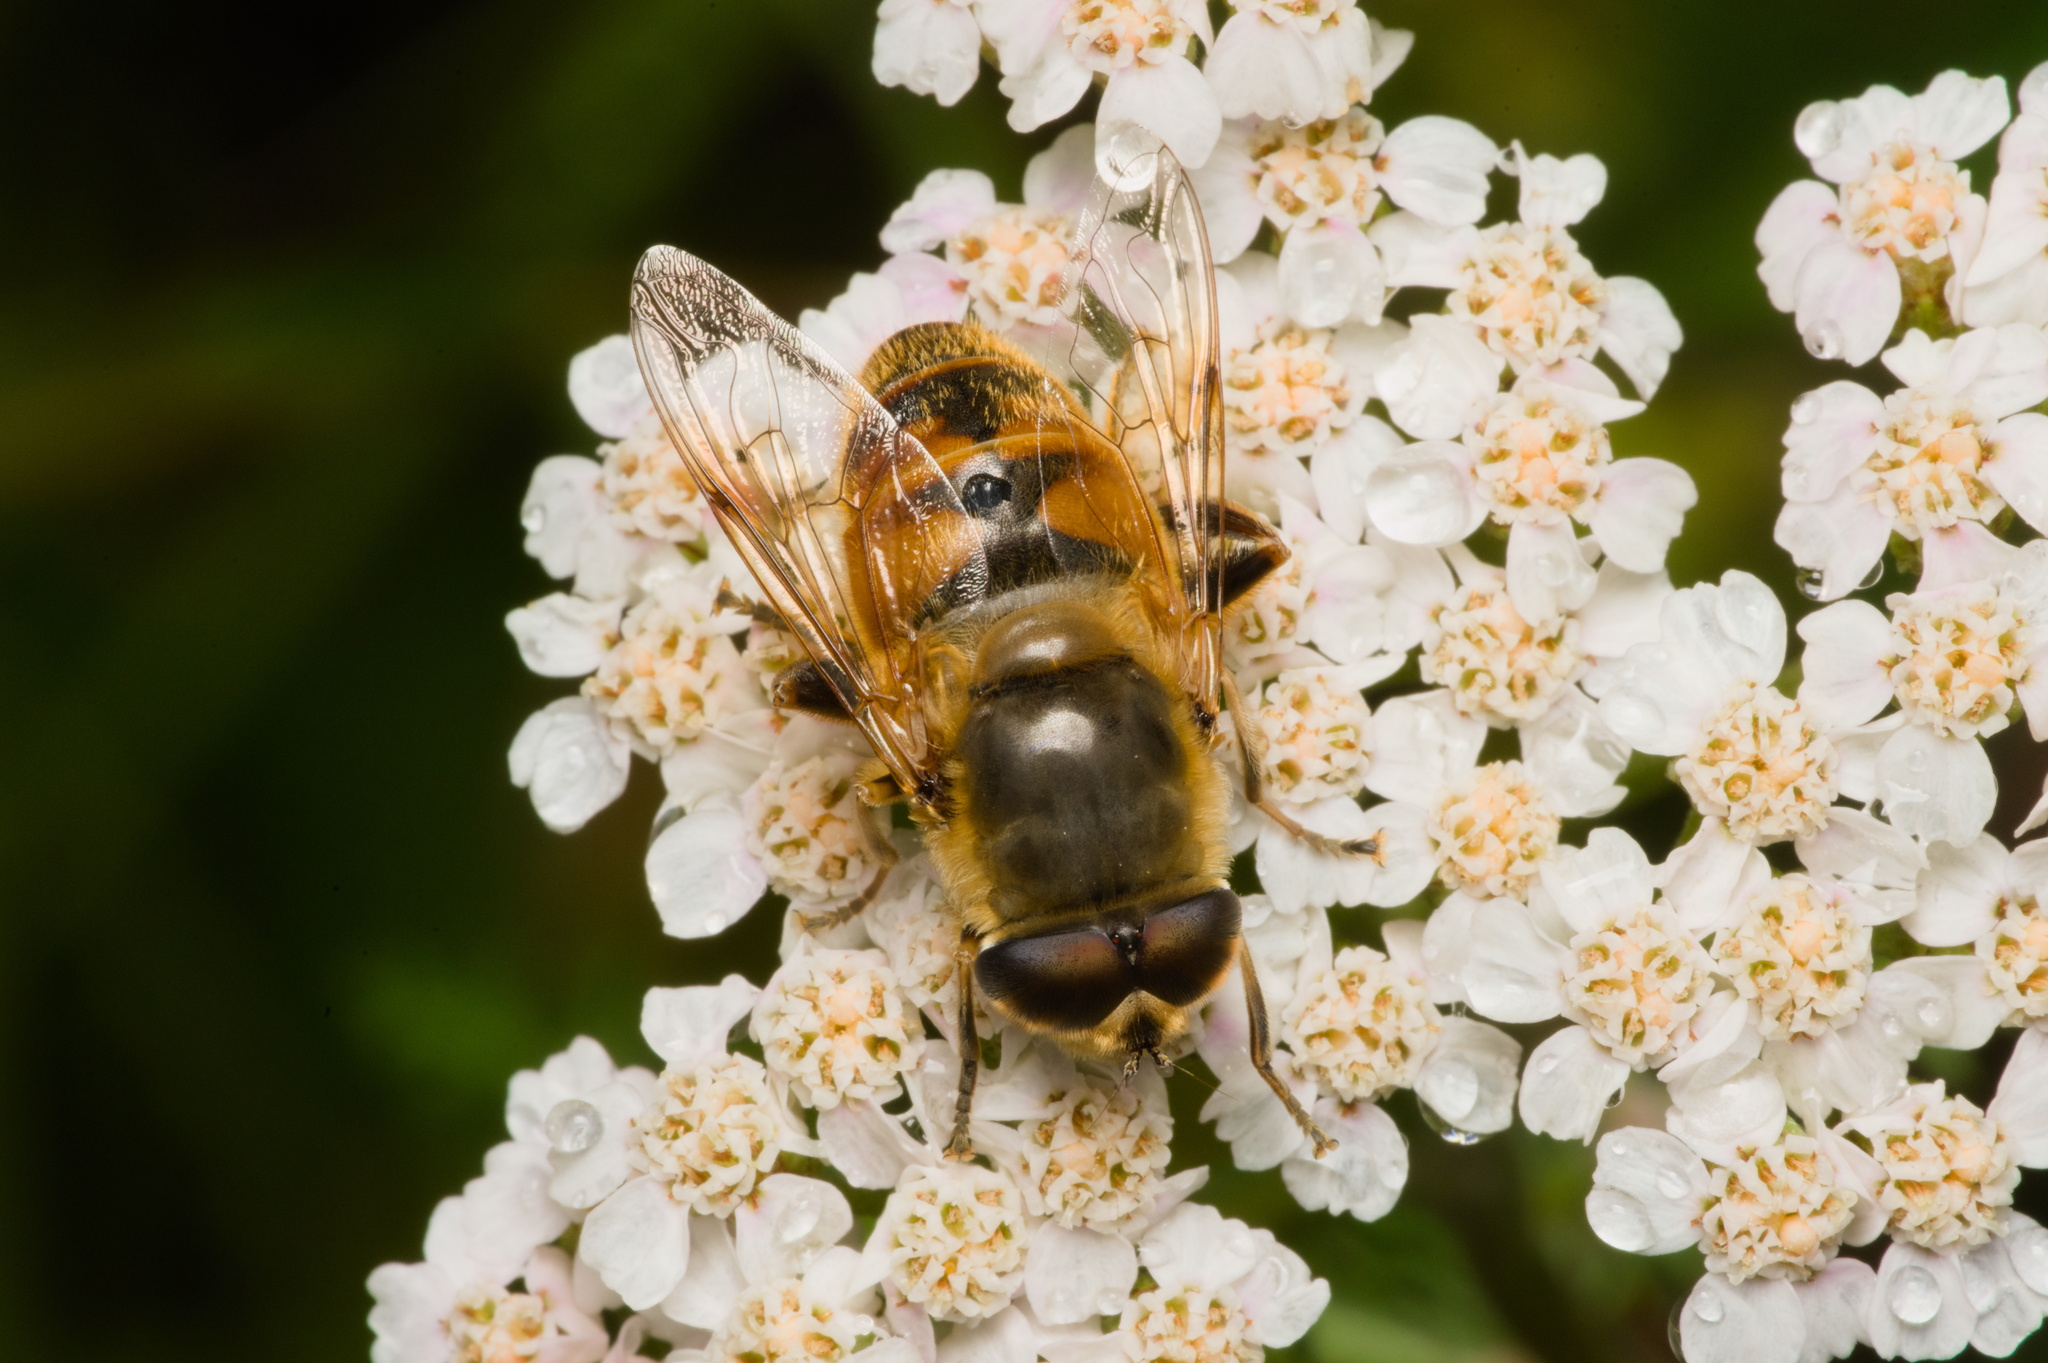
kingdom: Animalia
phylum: Arthropoda
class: Insecta
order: Diptera
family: Syrphidae
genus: Eristalis
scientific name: Eristalis tenax
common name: Drone fly
